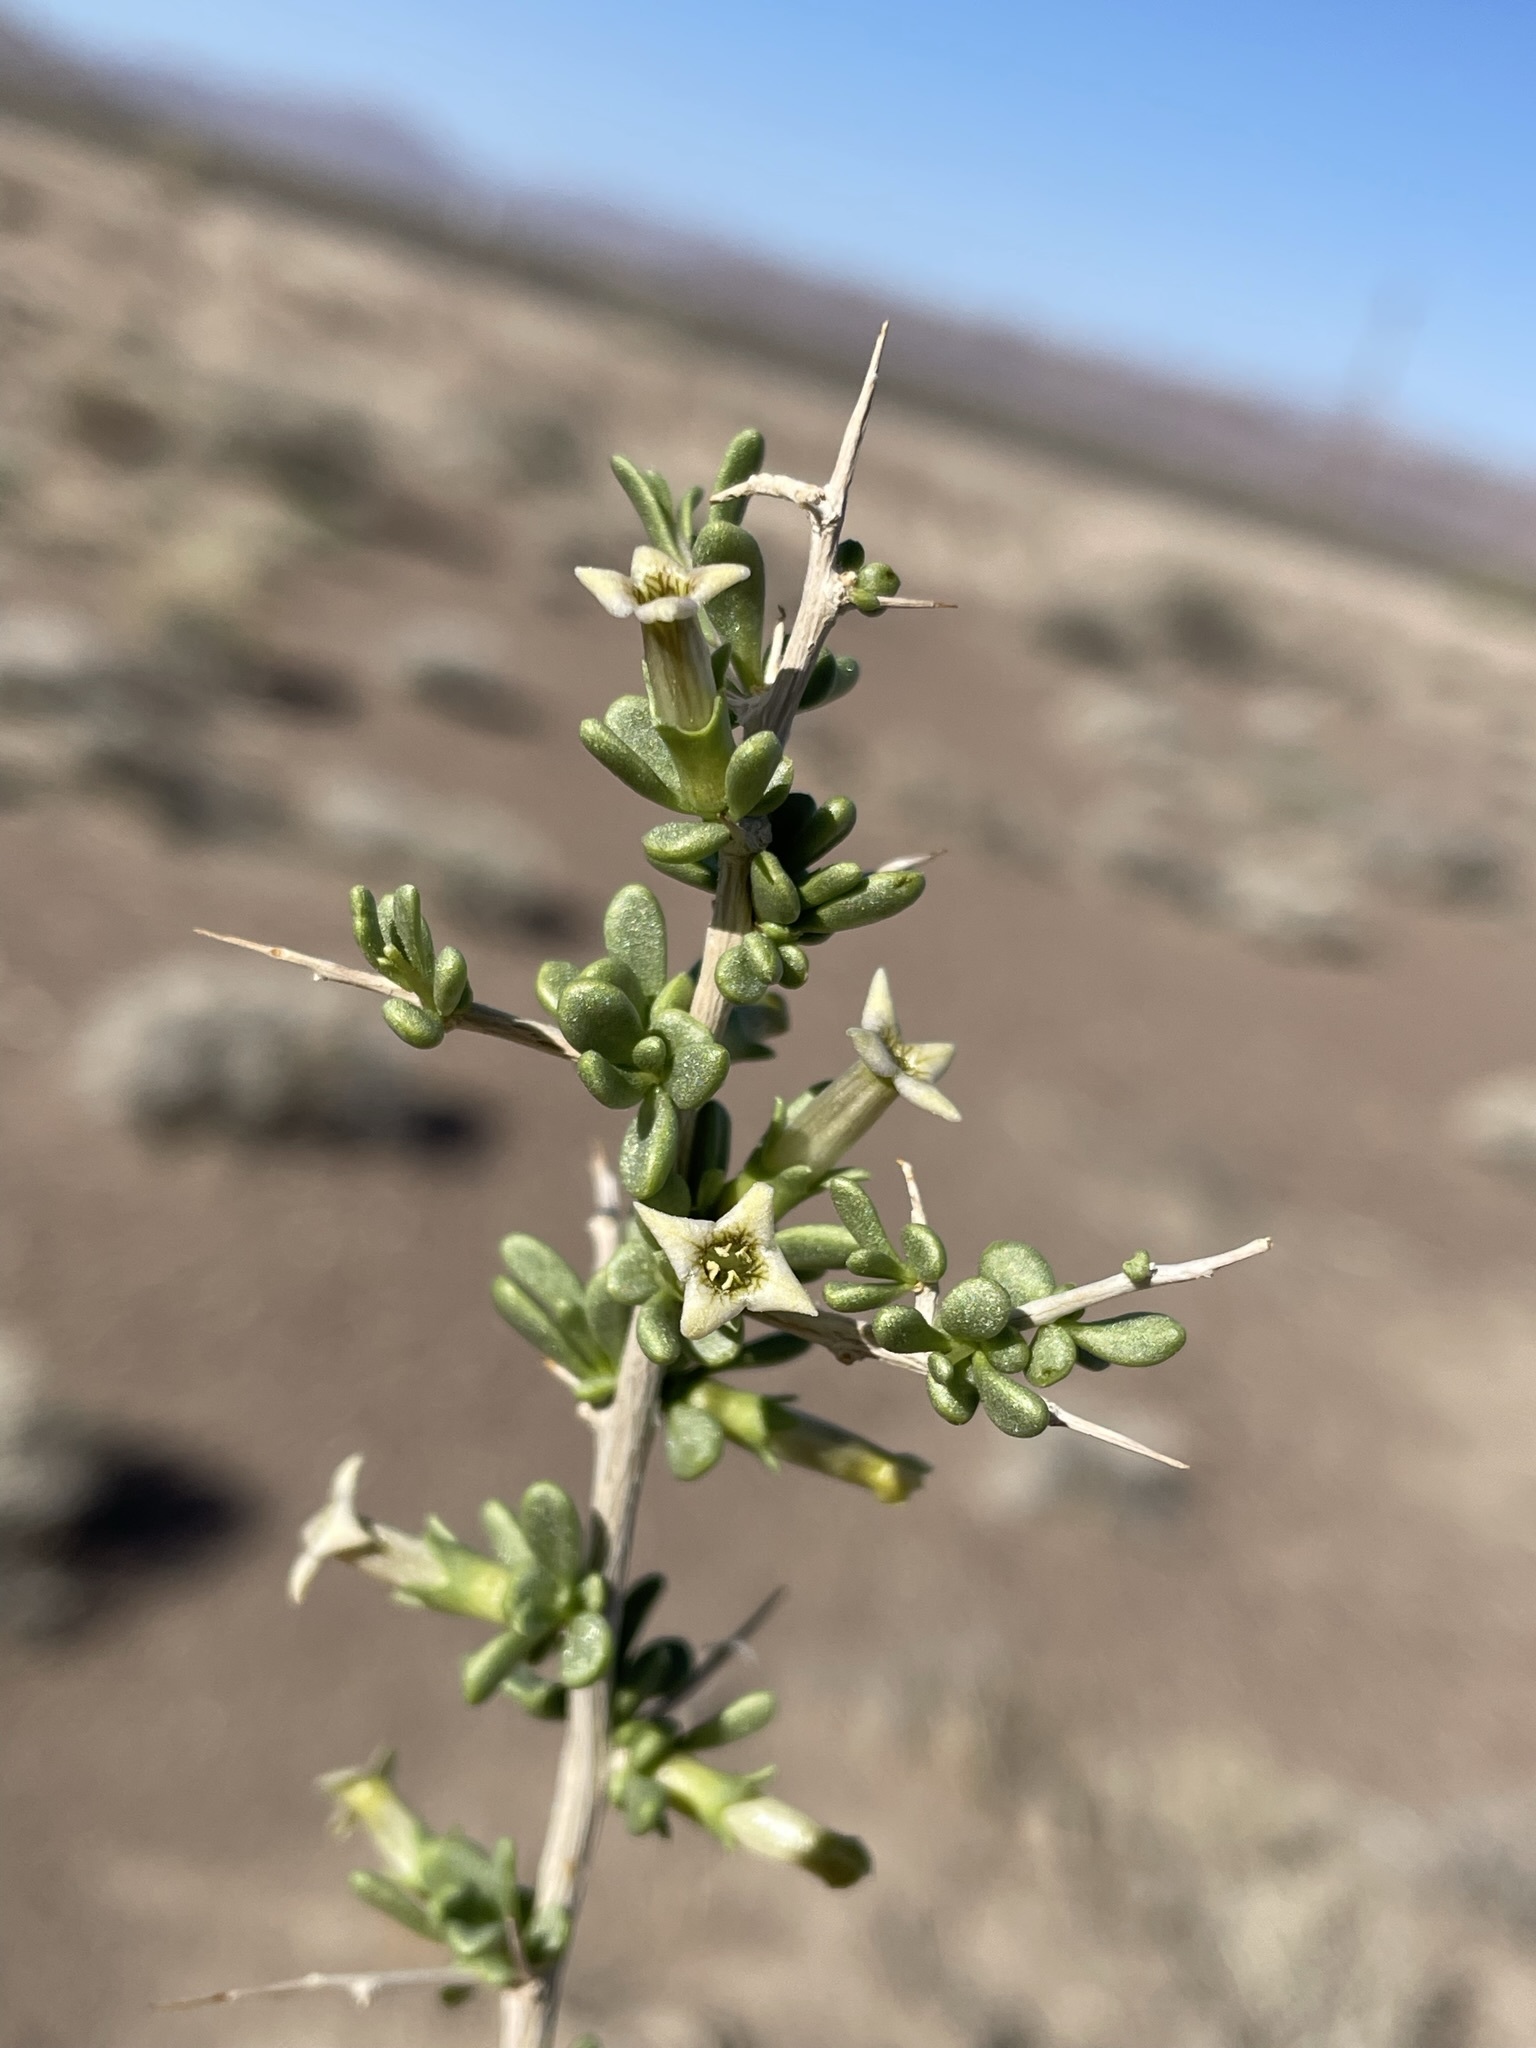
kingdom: Plantae
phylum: Tracheophyta
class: Magnoliopsida
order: Solanales
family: Solanaceae
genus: Lycium
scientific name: Lycium shockleyi
